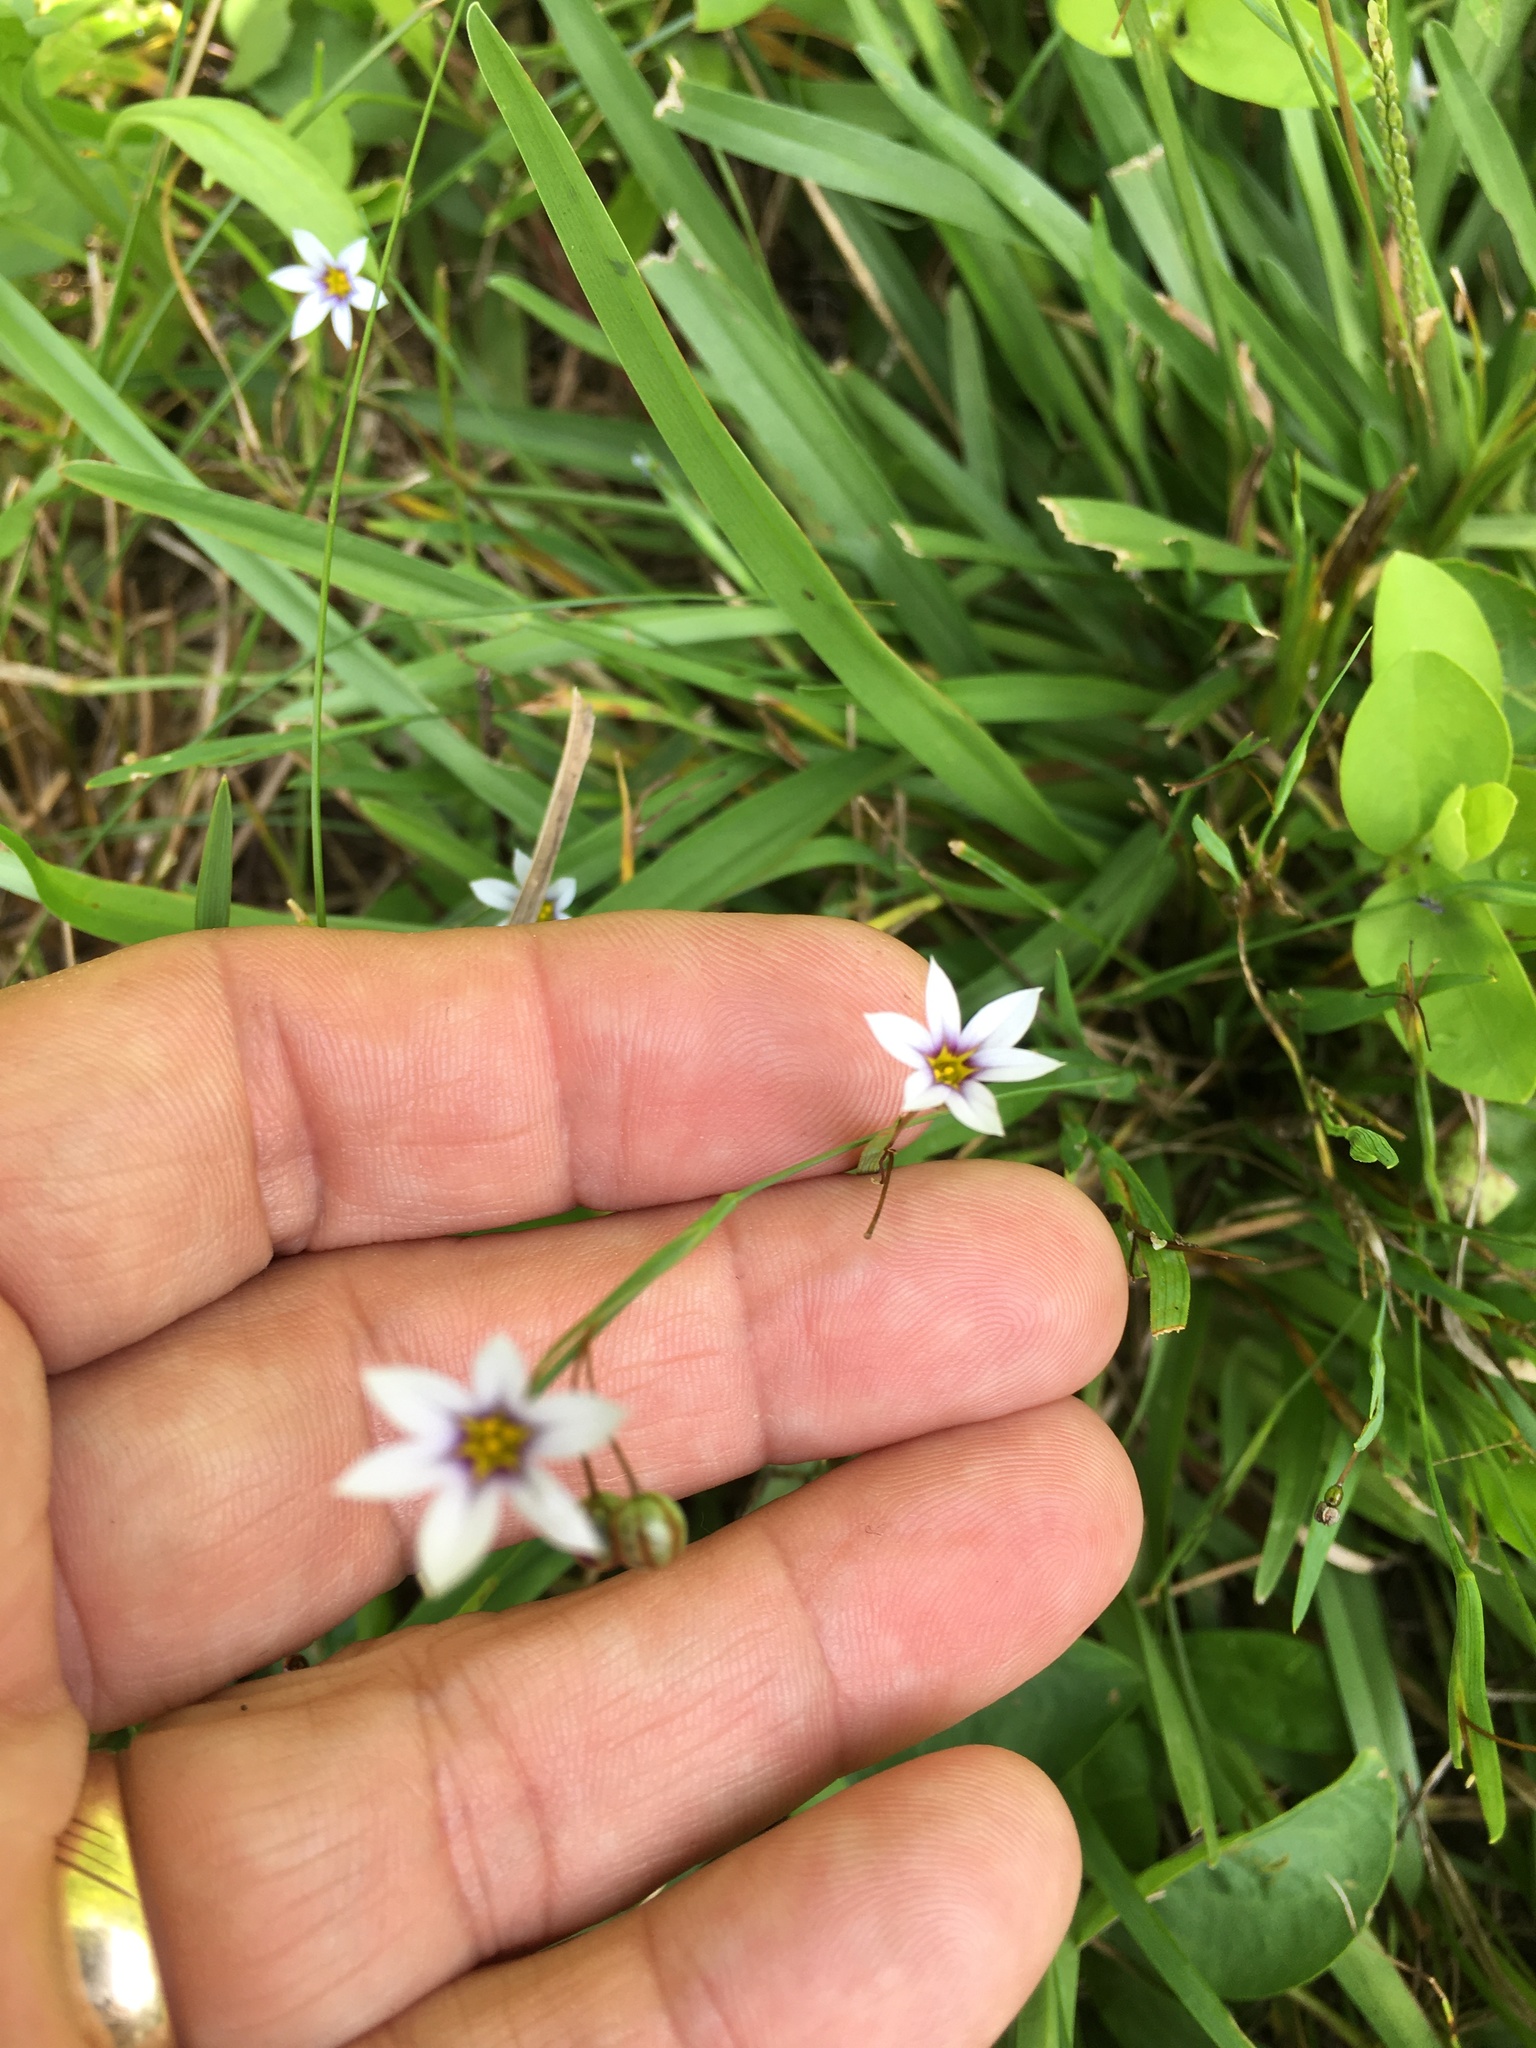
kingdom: Plantae
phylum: Tracheophyta
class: Liliopsida
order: Asparagales
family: Iridaceae
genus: Sisyrinchium
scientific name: Sisyrinchium micranthum
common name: Bermuda pigroot
